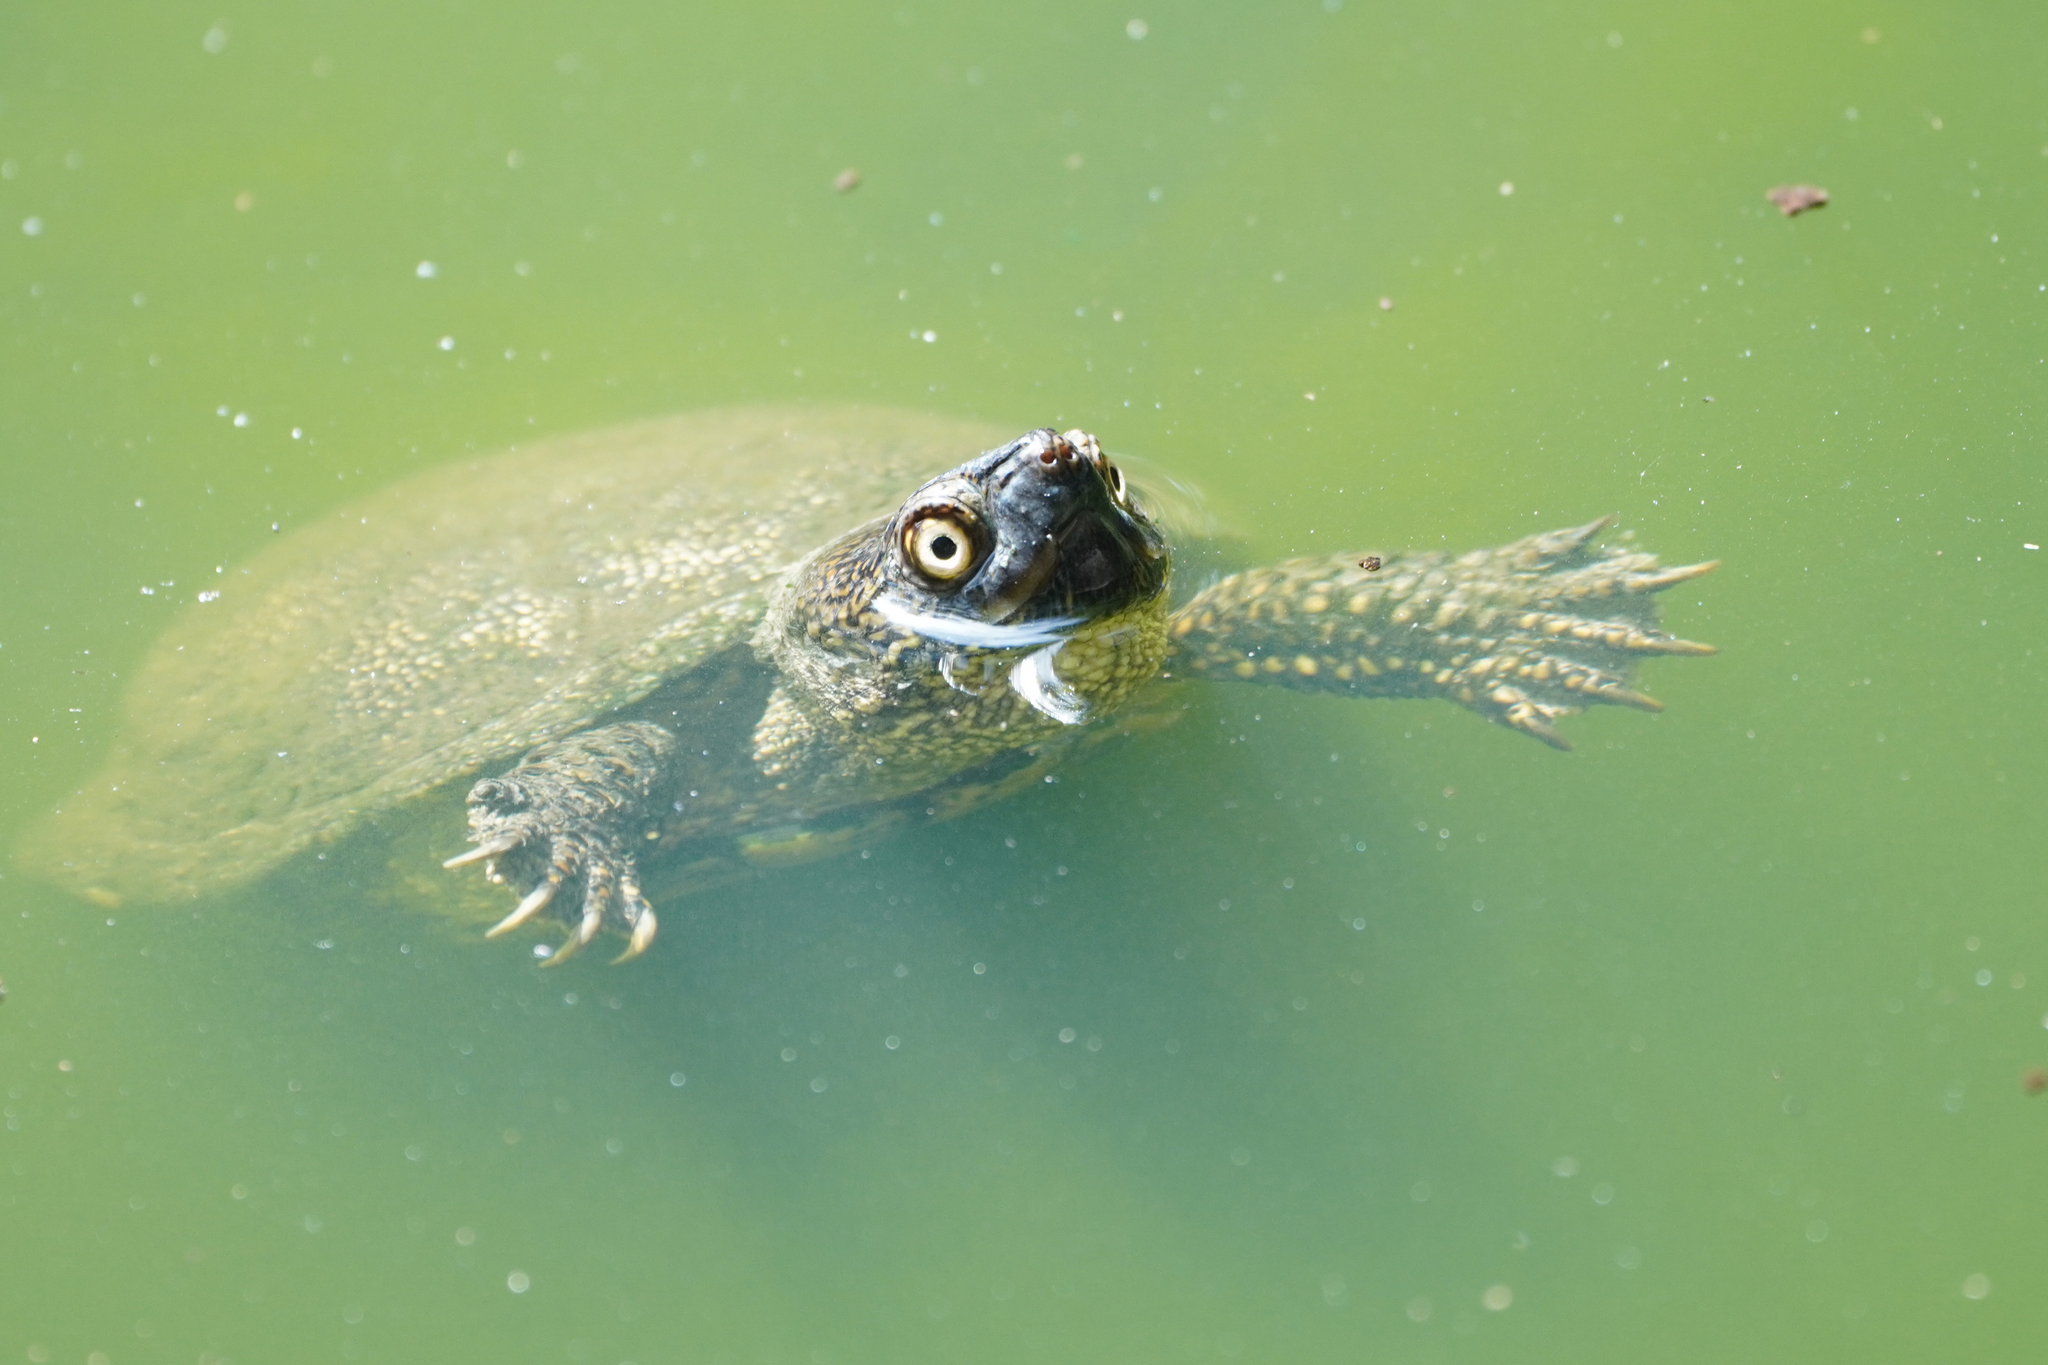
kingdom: Animalia
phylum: Chordata
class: Testudines
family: Emydidae
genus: Emys
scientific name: Emys orbicularis
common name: European pond turtle
